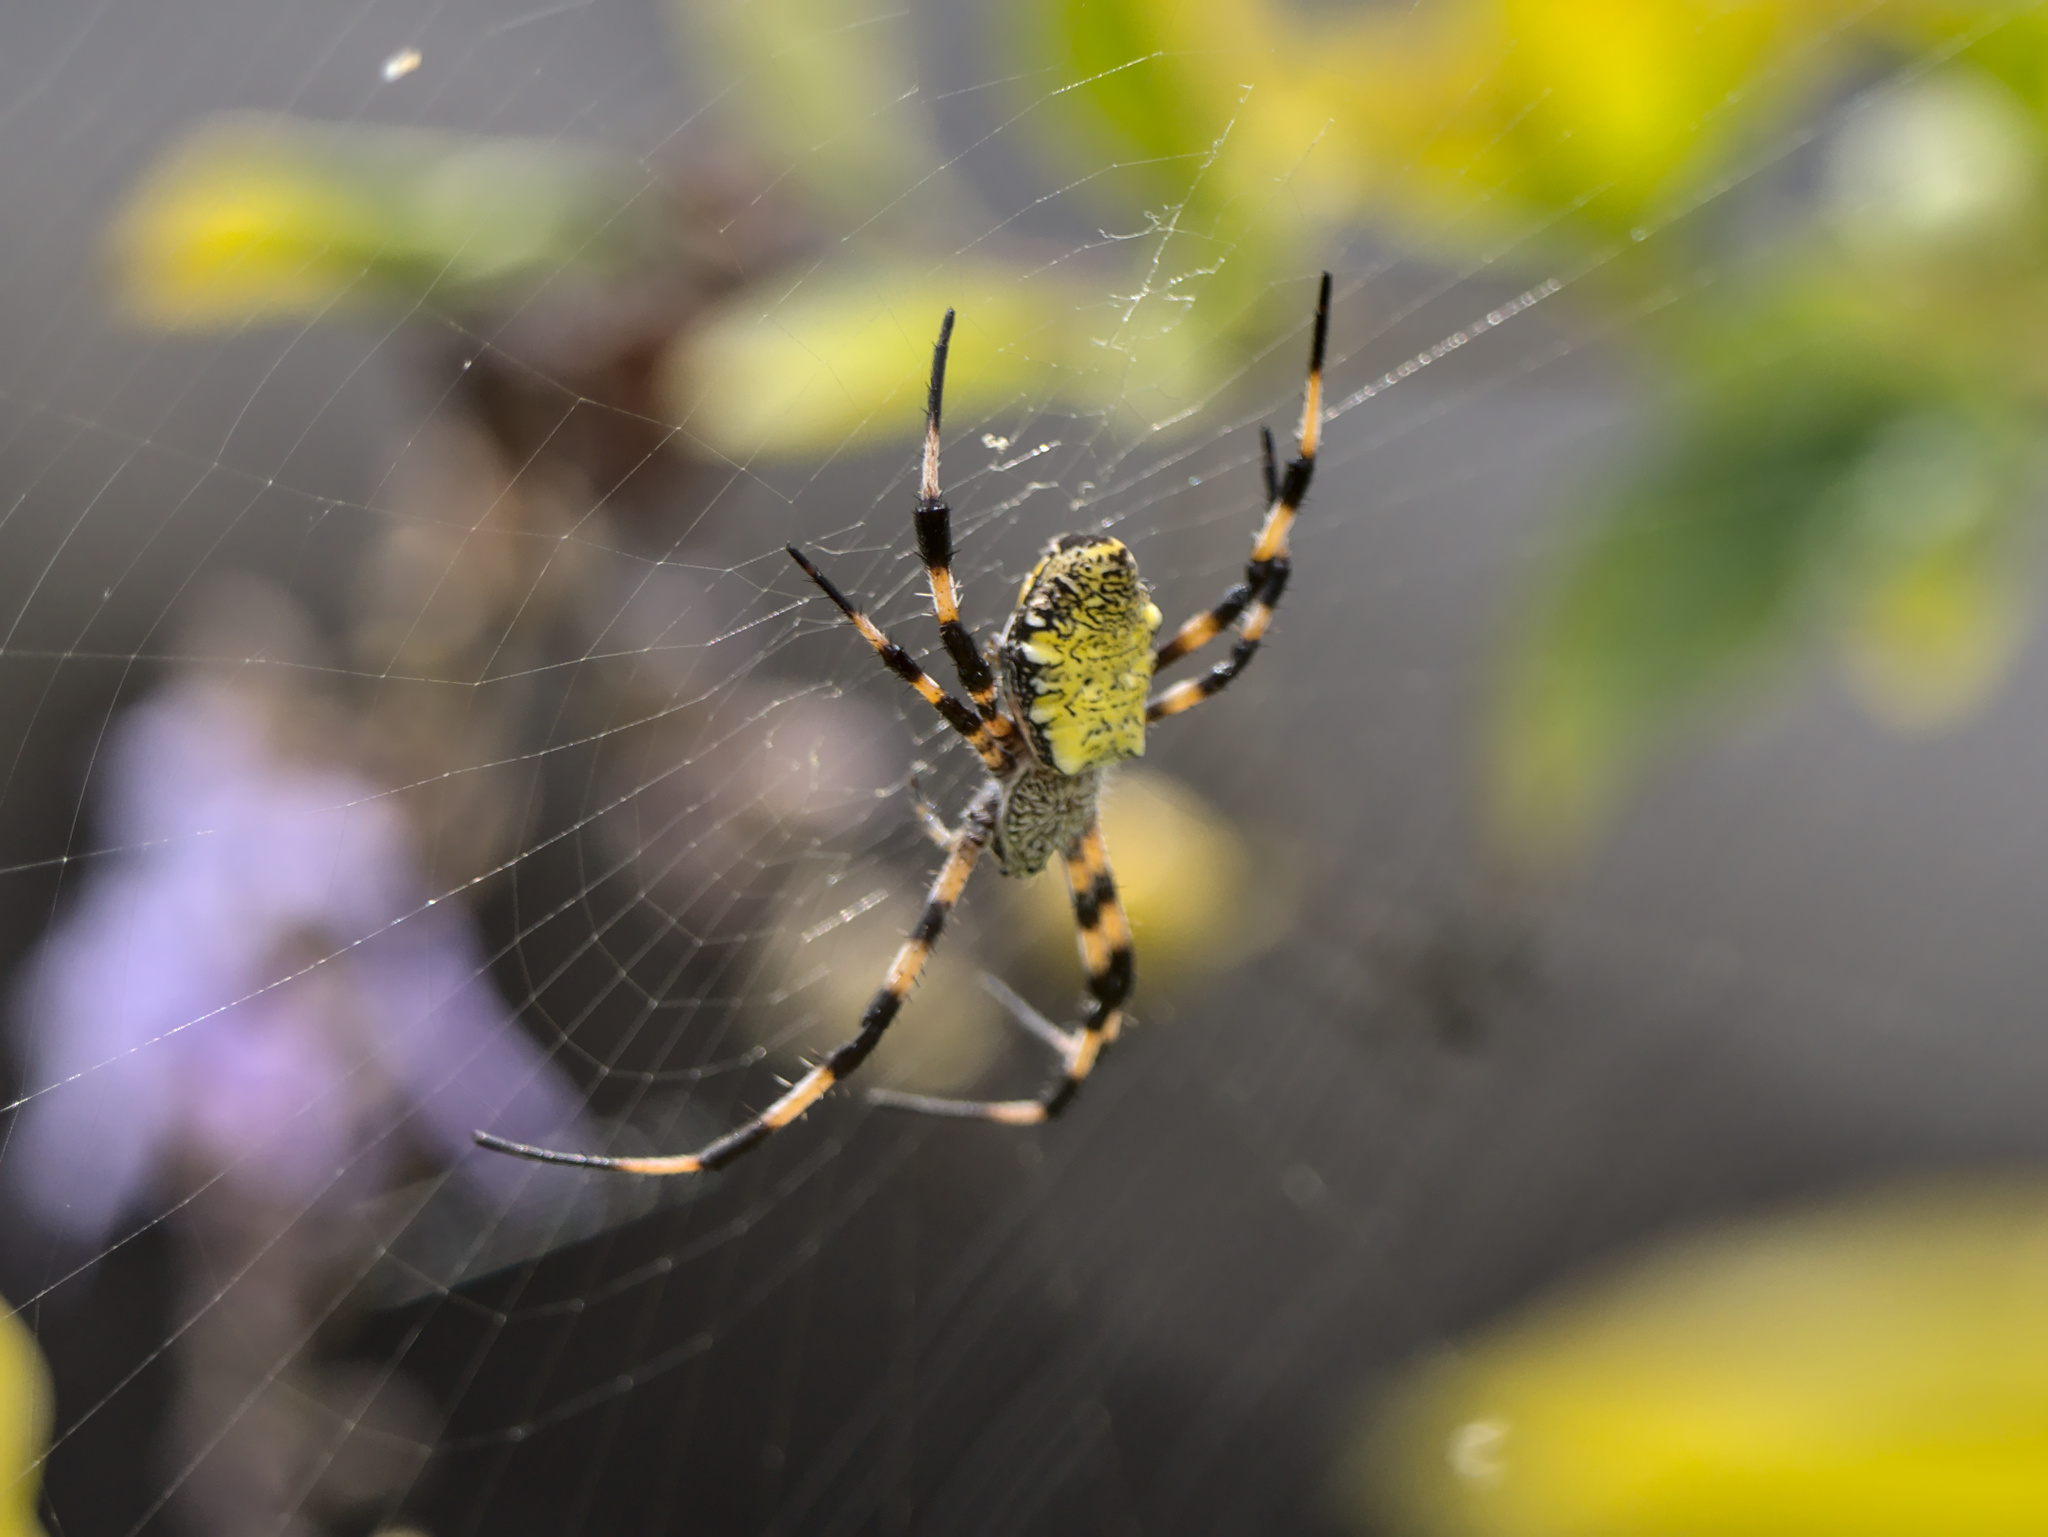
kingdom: Animalia
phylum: Arthropoda
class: Arachnida
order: Araneae
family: Araneidae
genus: Argiope
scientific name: Argiope appensa
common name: Garden spider
